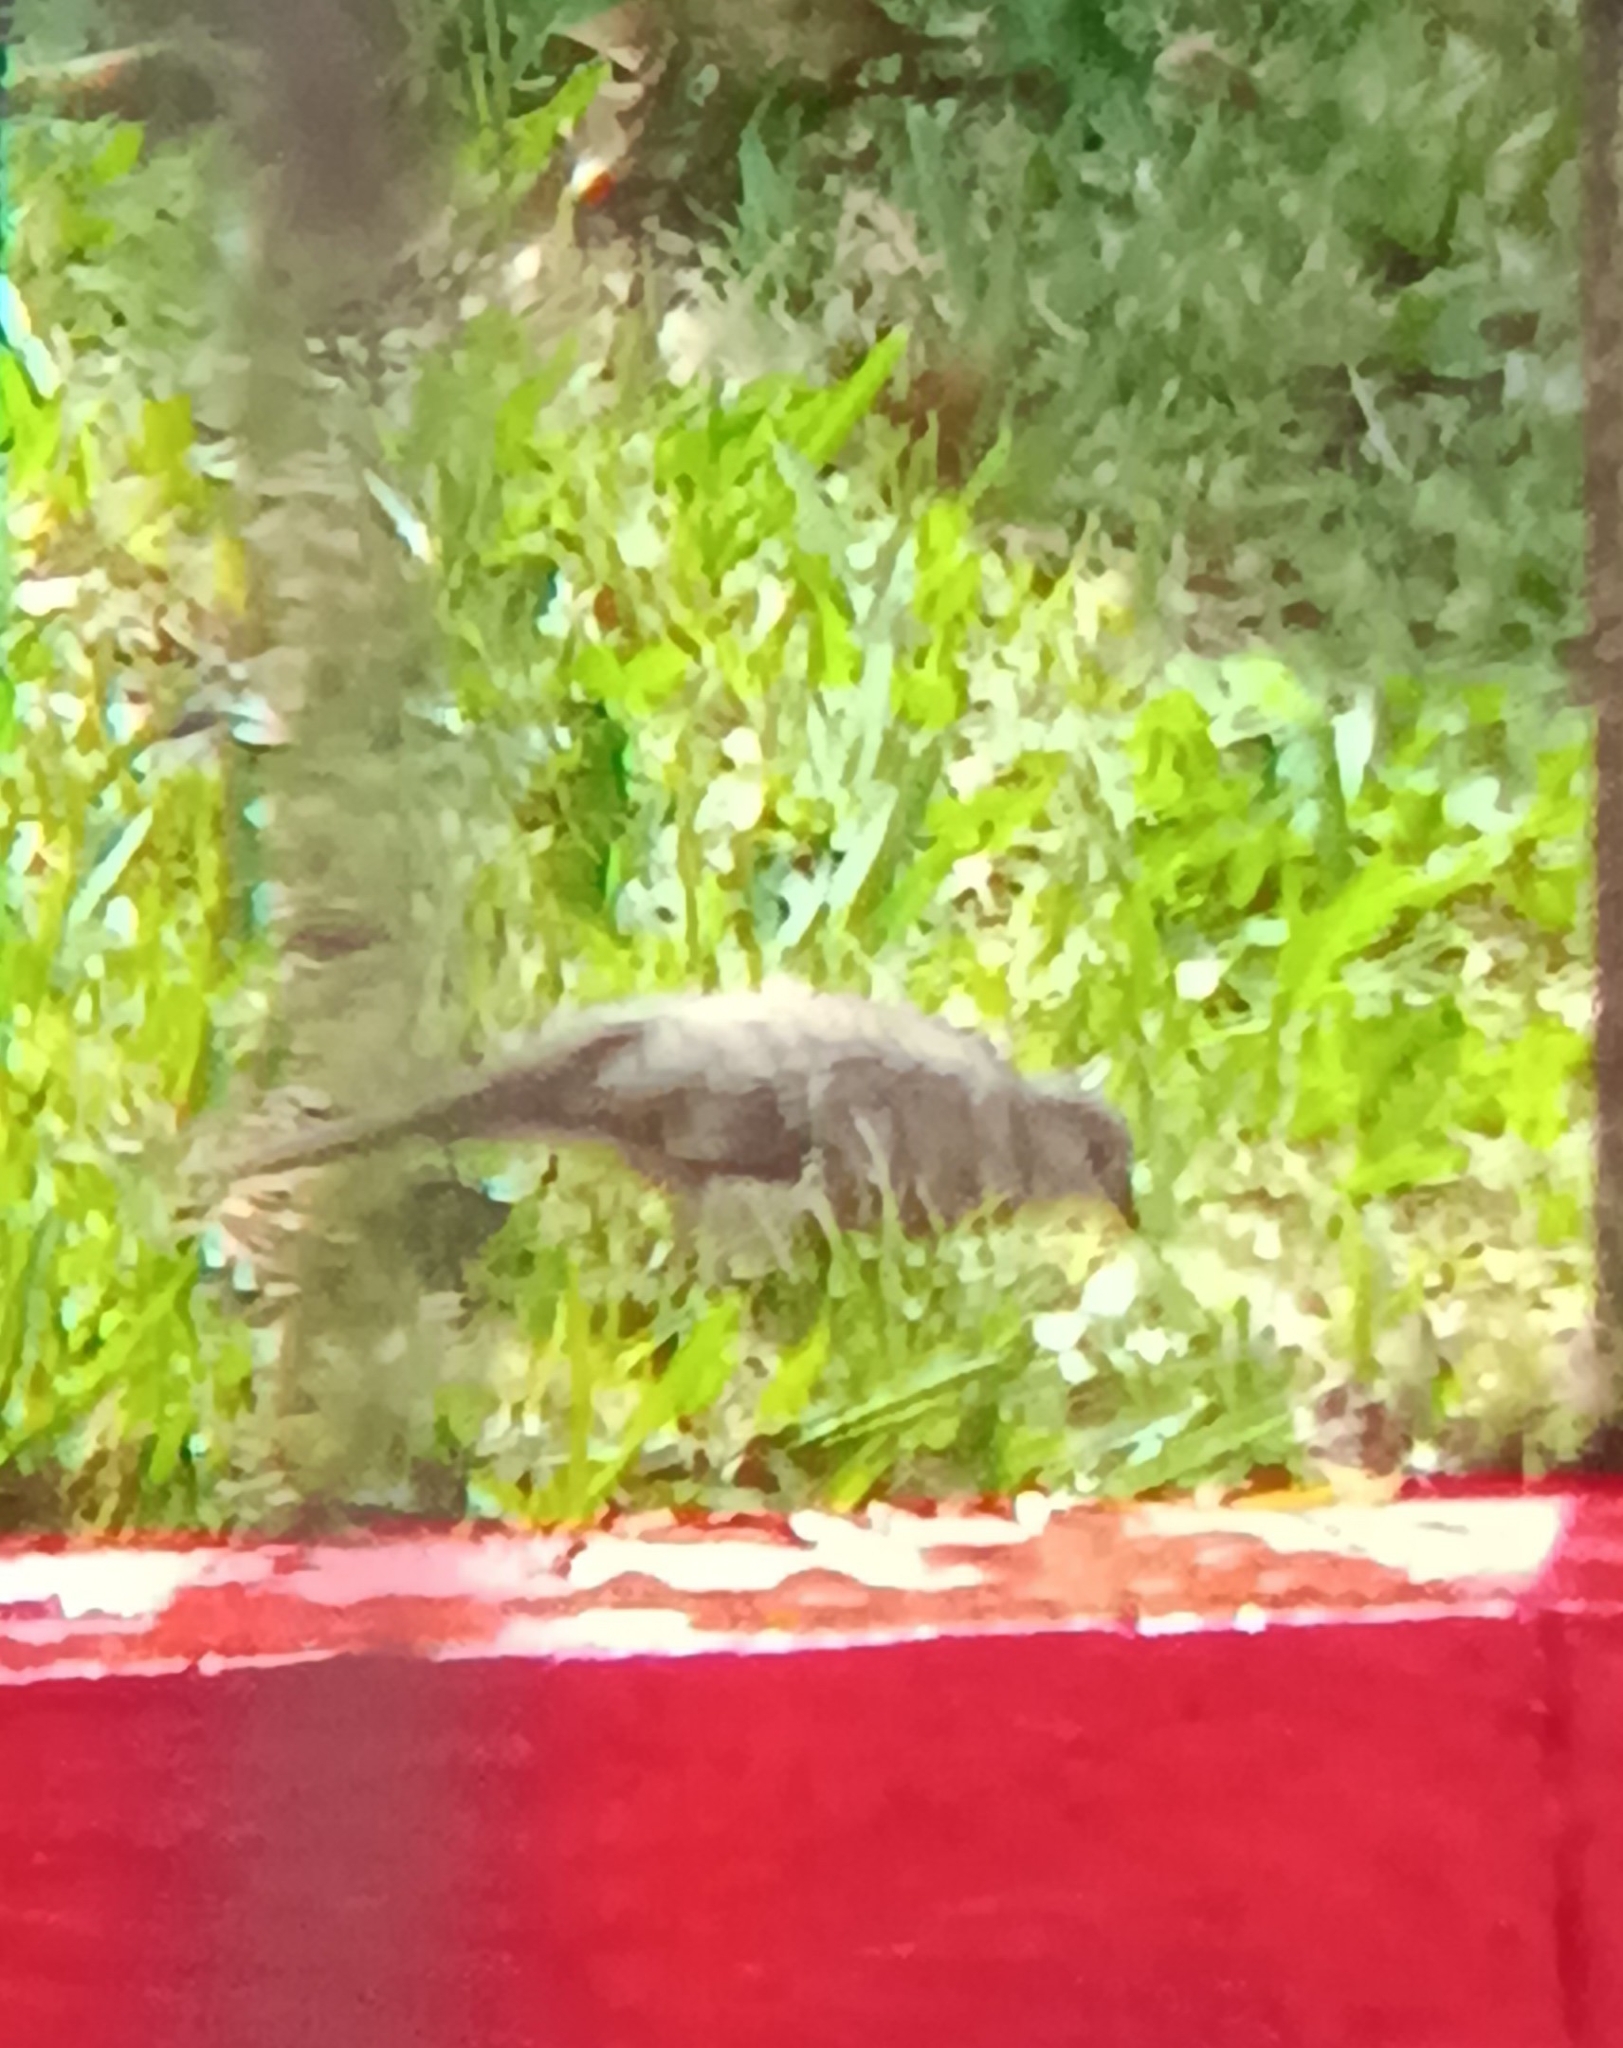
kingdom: Animalia
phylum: Chordata
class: Aves
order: Columbiformes
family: Columbidae
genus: Columbina
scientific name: Columbina inca
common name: Inca dove
